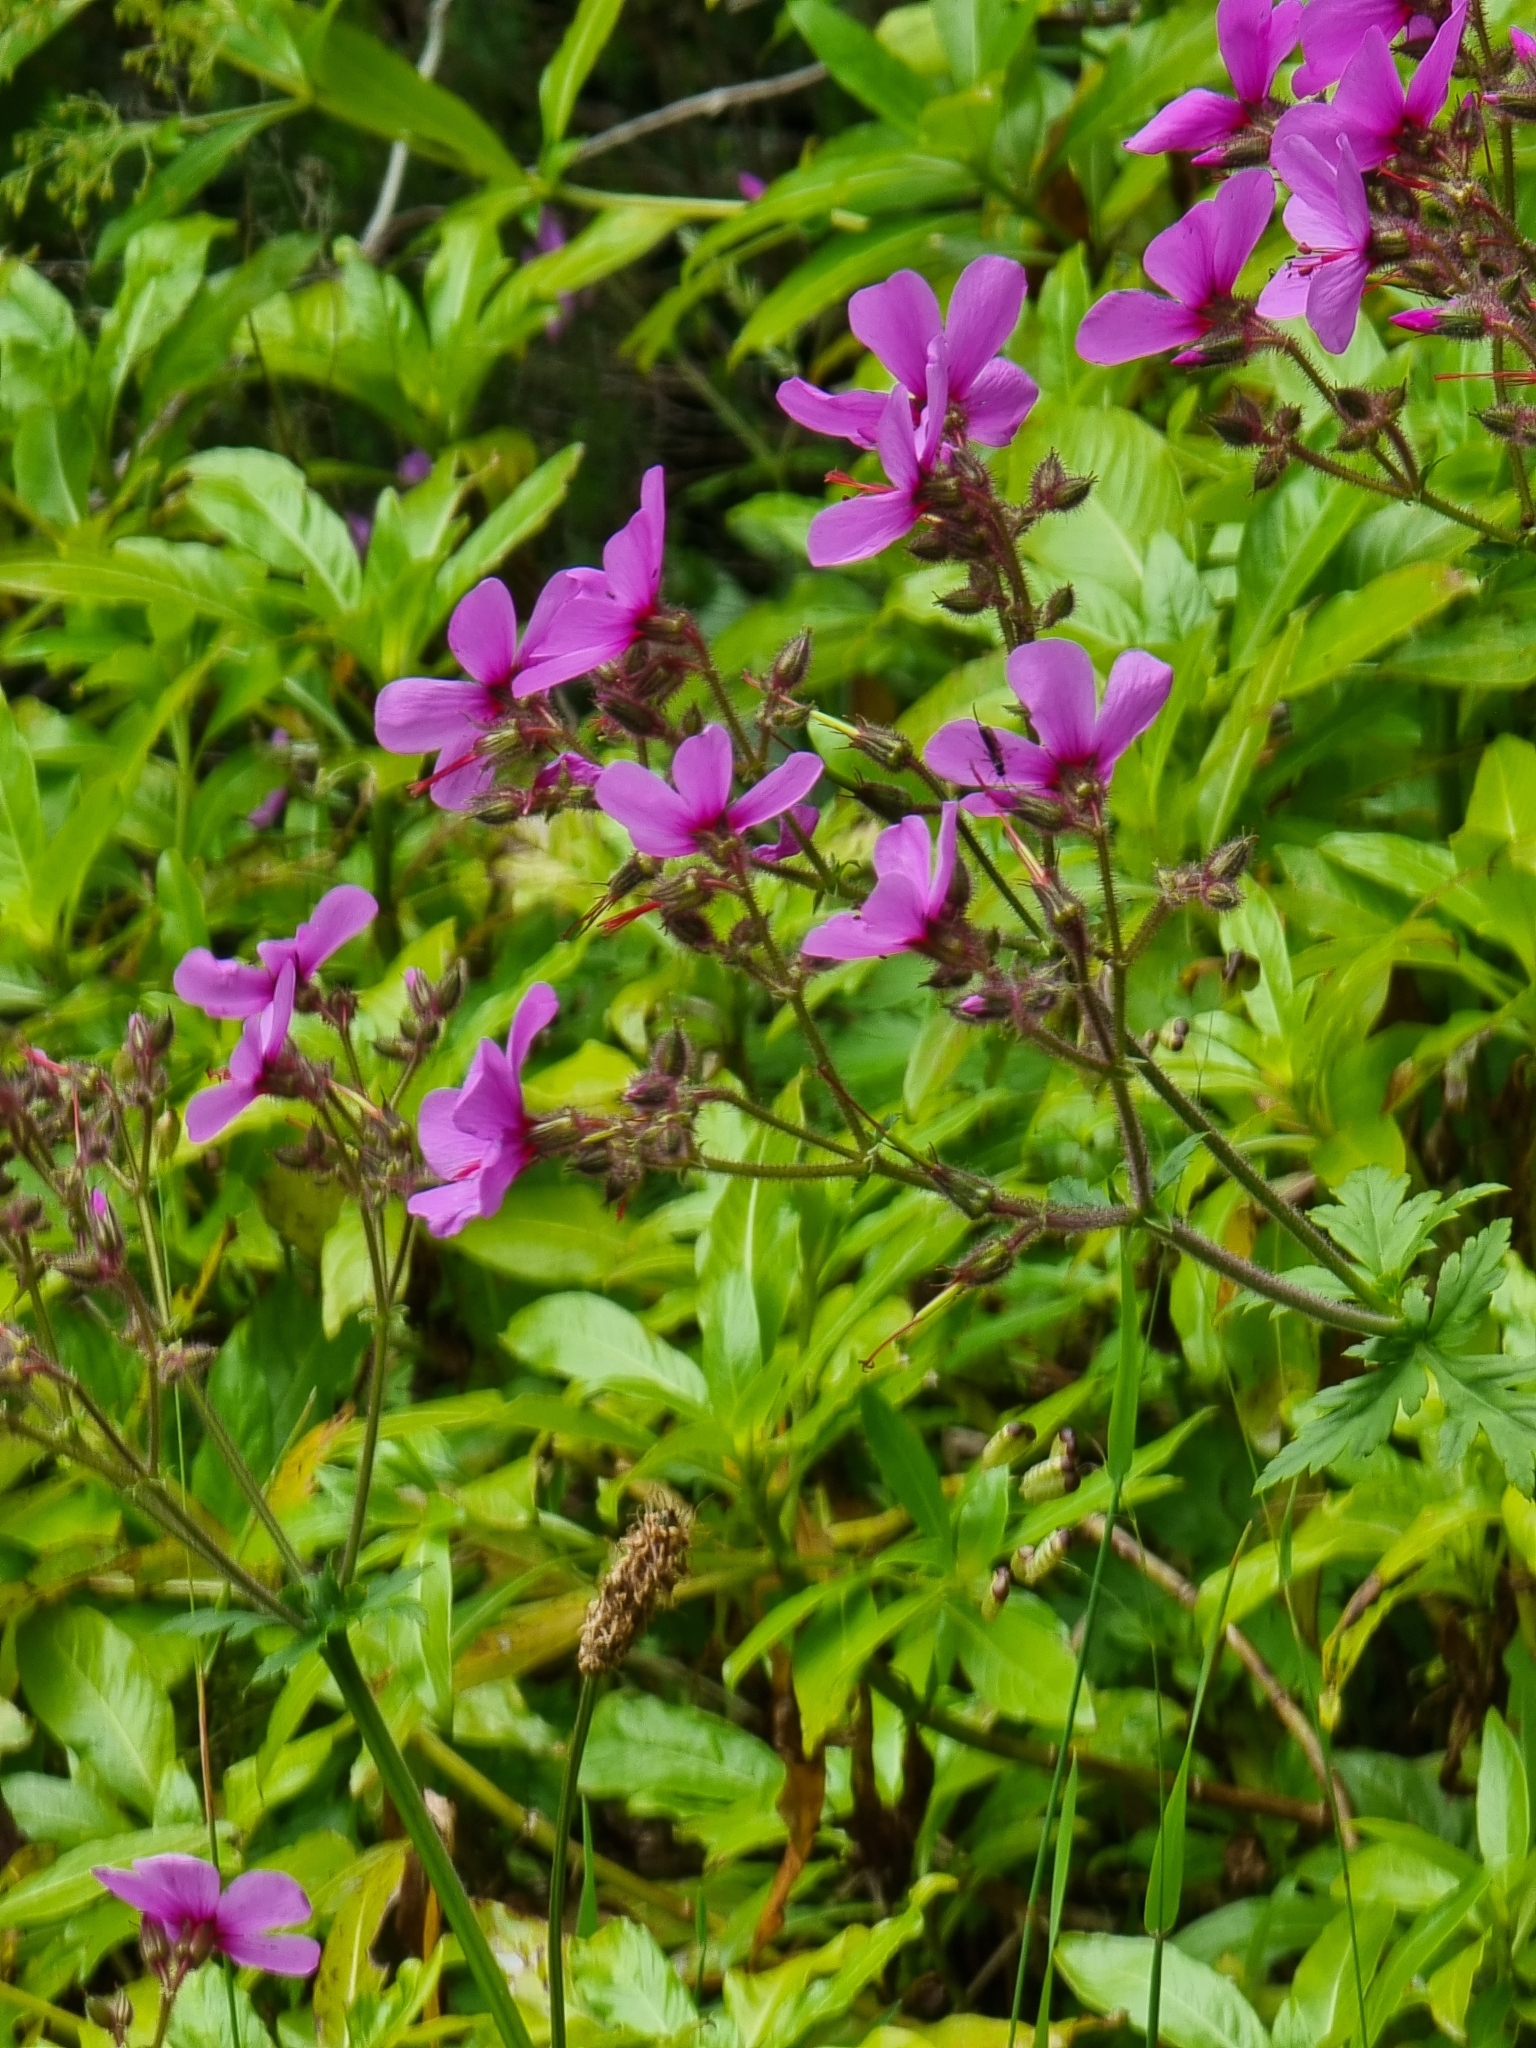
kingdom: Plantae
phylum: Tracheophyta
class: Magnoliopsida
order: Geraniales
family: Geraniaceae
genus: Geranium
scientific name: Geranium palmatum
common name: Canary island geranium
